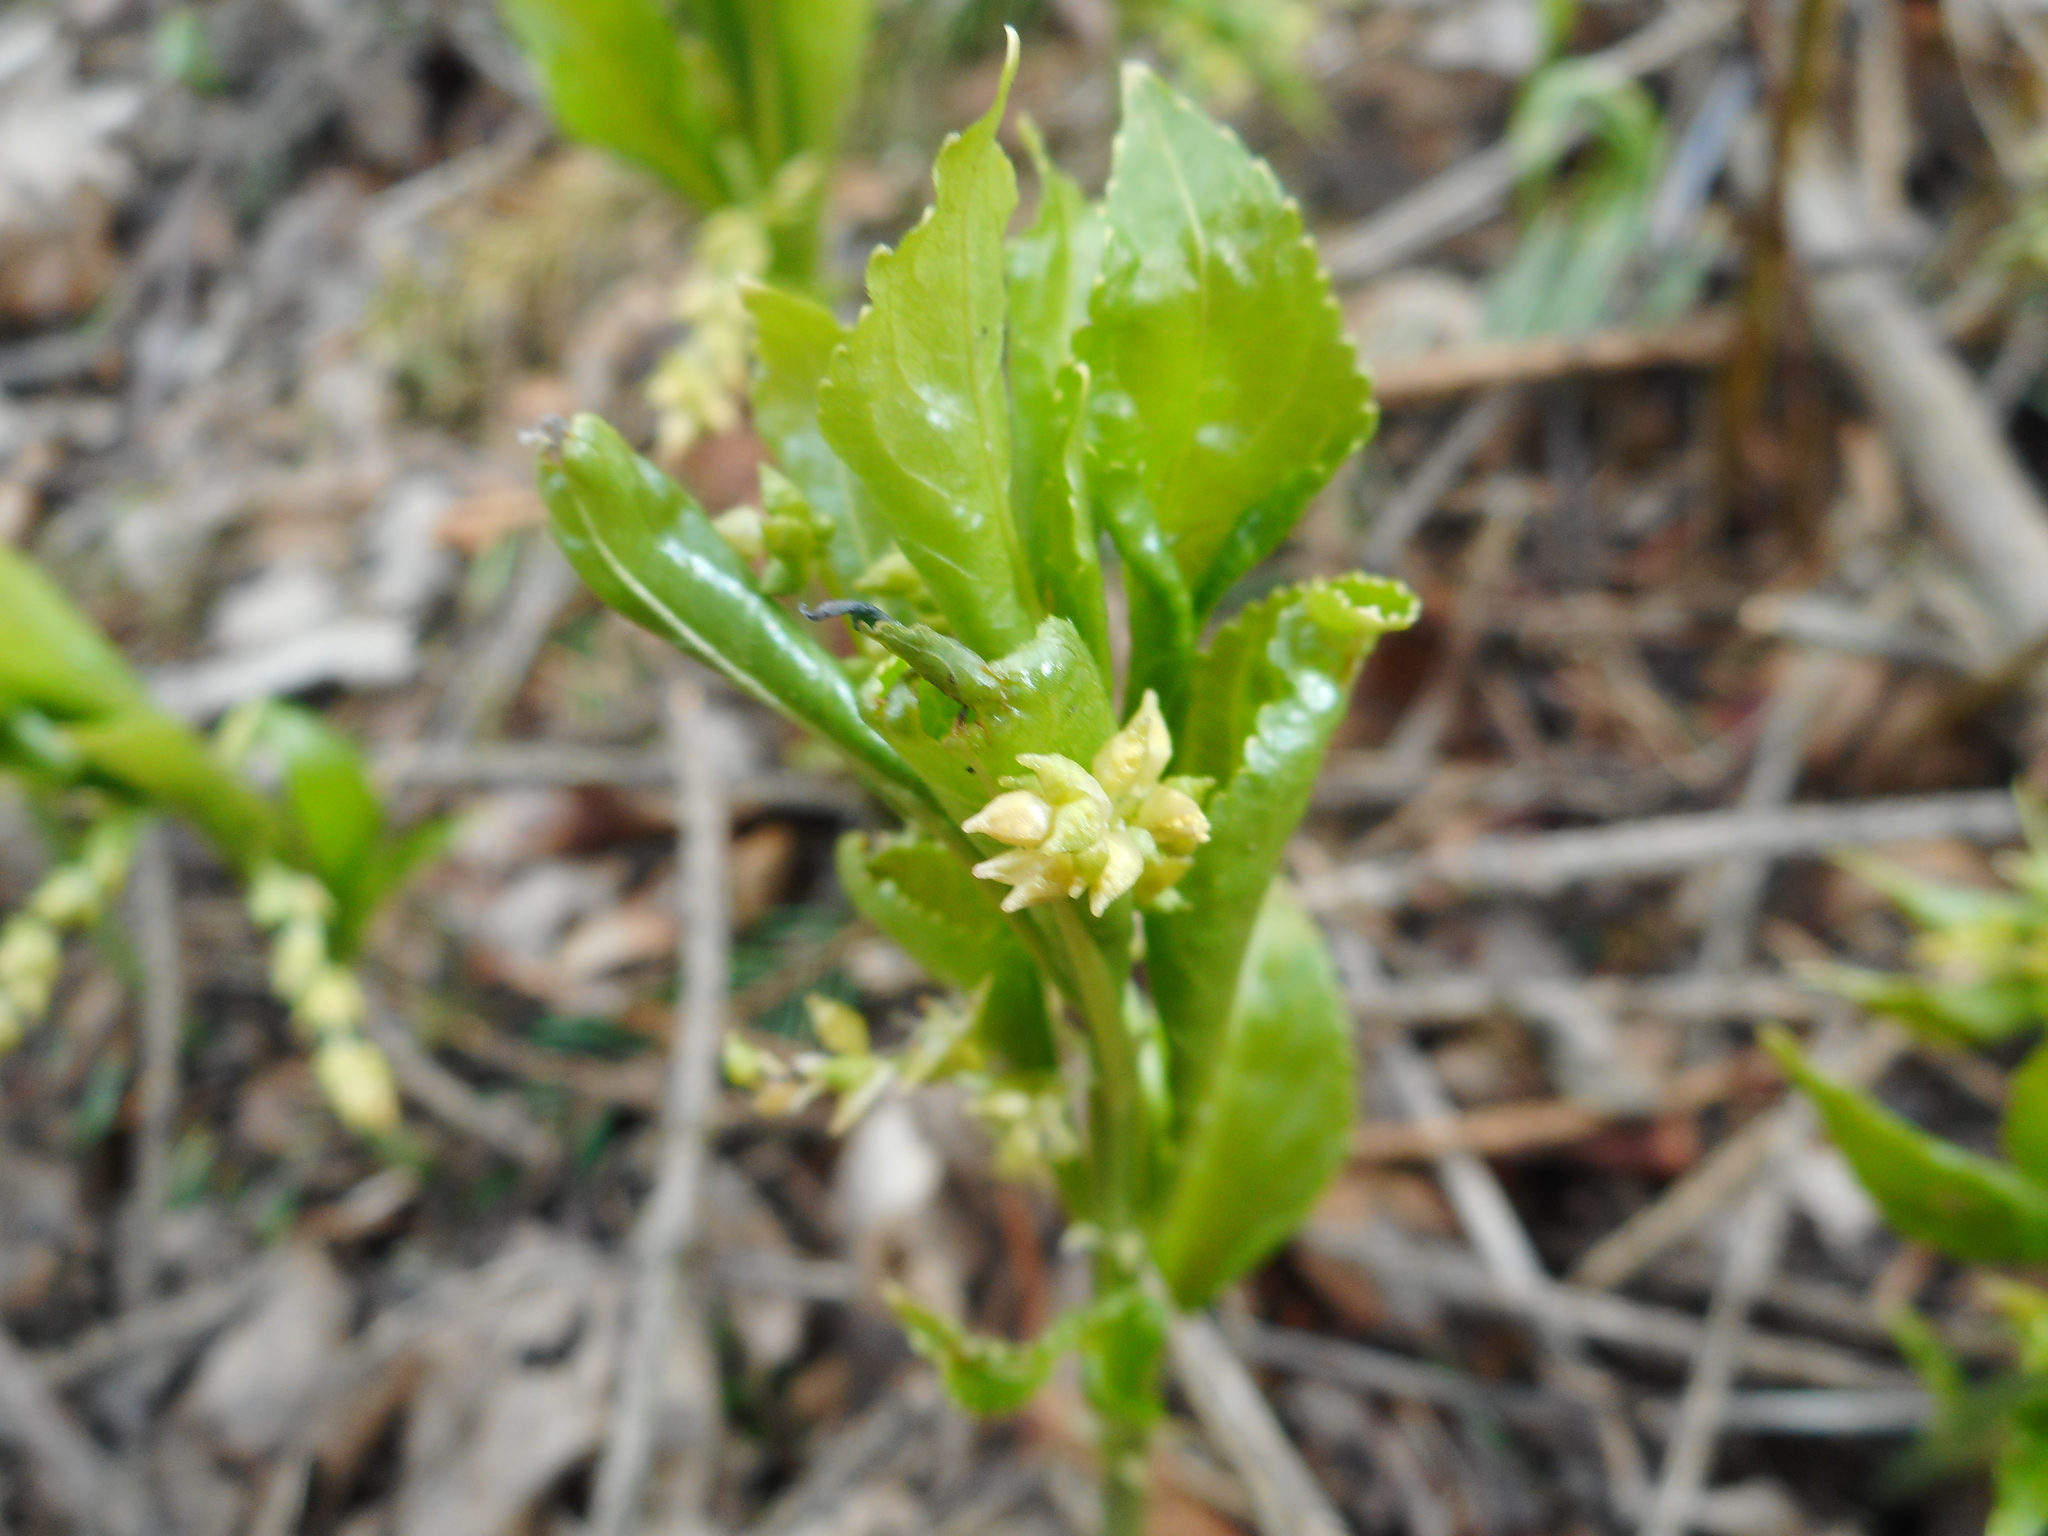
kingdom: Plantae
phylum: Tracheophyta
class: Magnoliopsida
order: Malpighiales
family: Euphorbiaceae
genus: Mercurialis
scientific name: Mercurialis perennis
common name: Dog mercury
